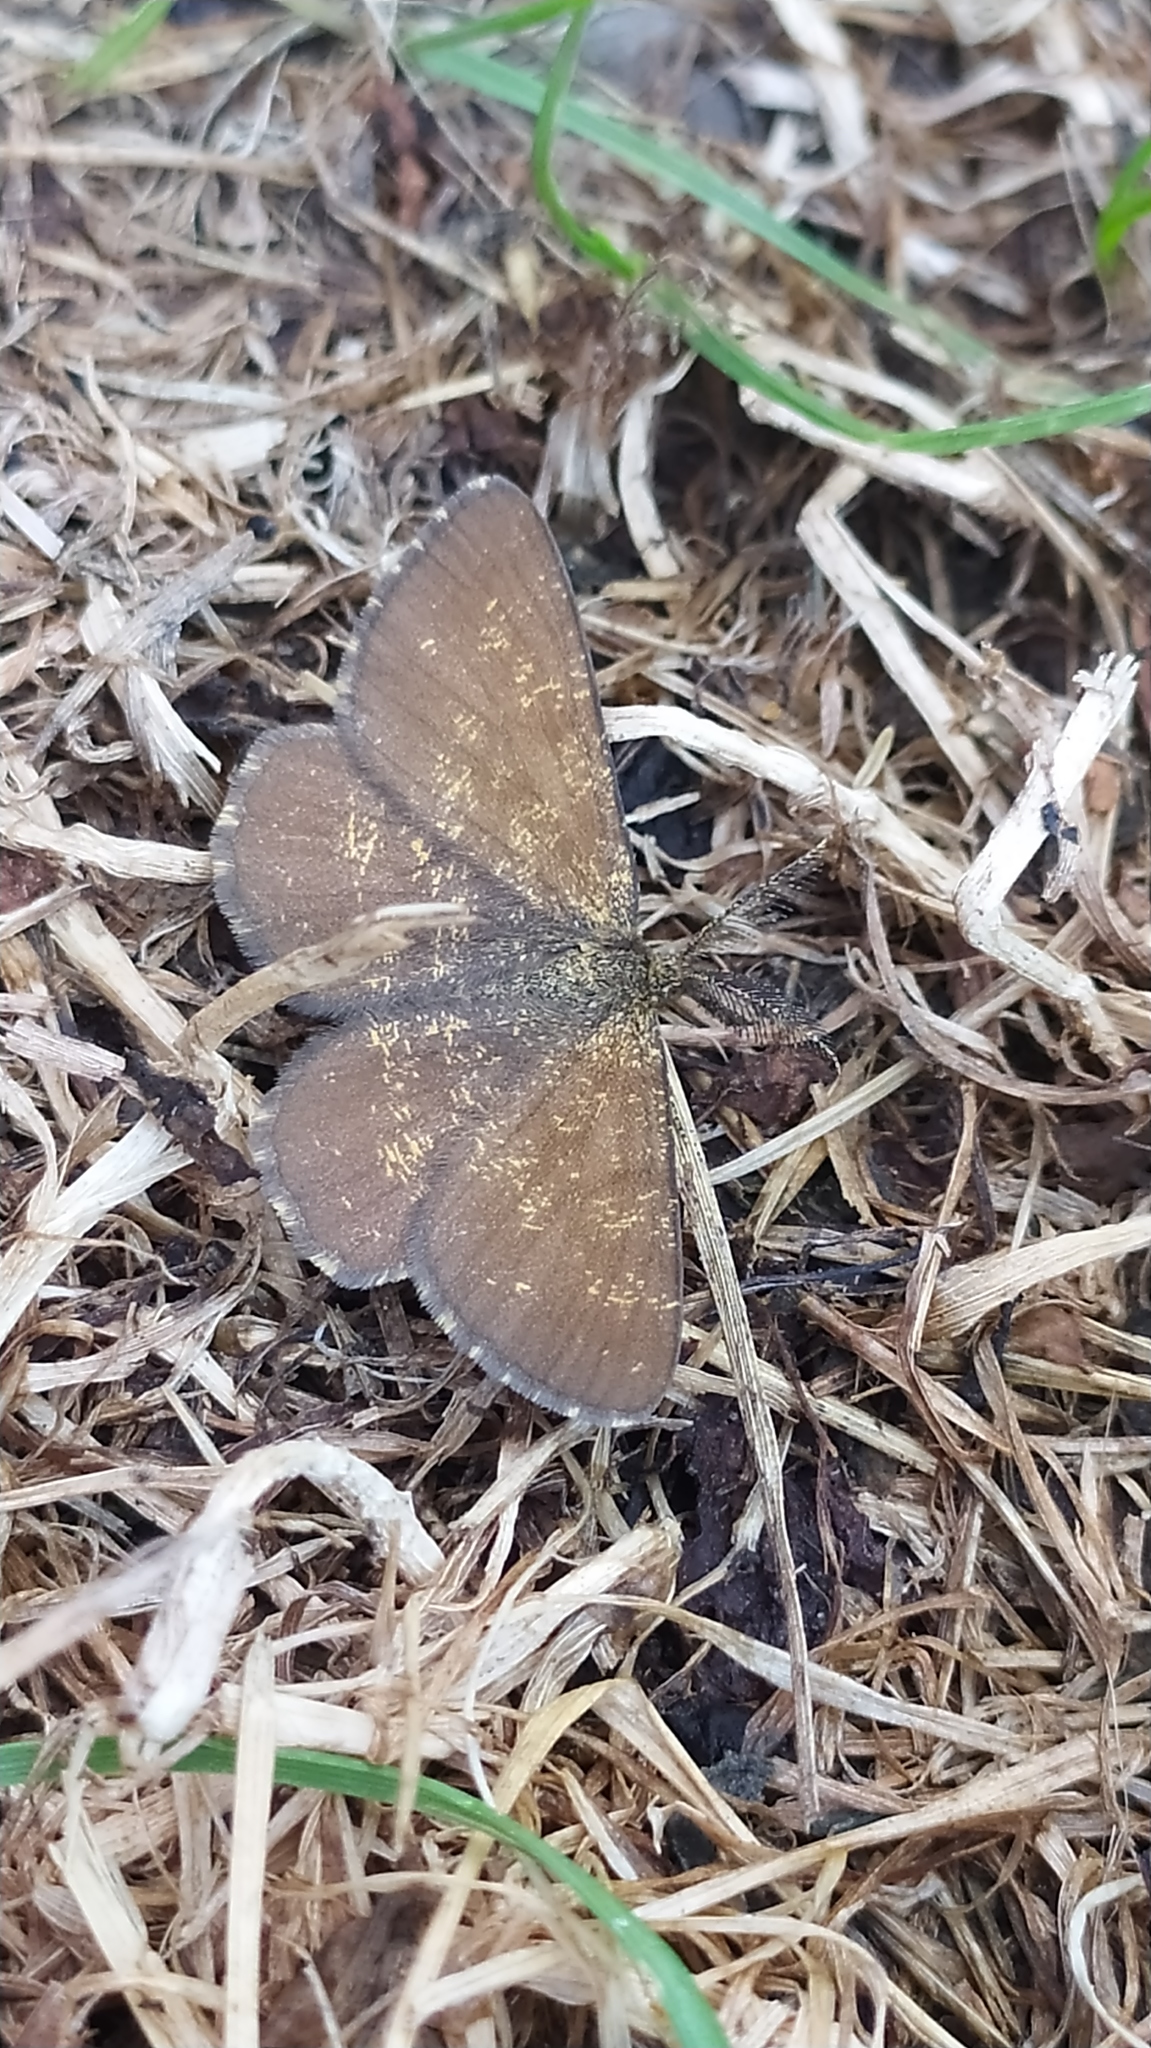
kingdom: Animalia
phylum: Arthropoda
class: Insecta
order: Lepidoptera
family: Geometridae
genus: Ematurga
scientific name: Ematurga atomaria
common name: Common heath
